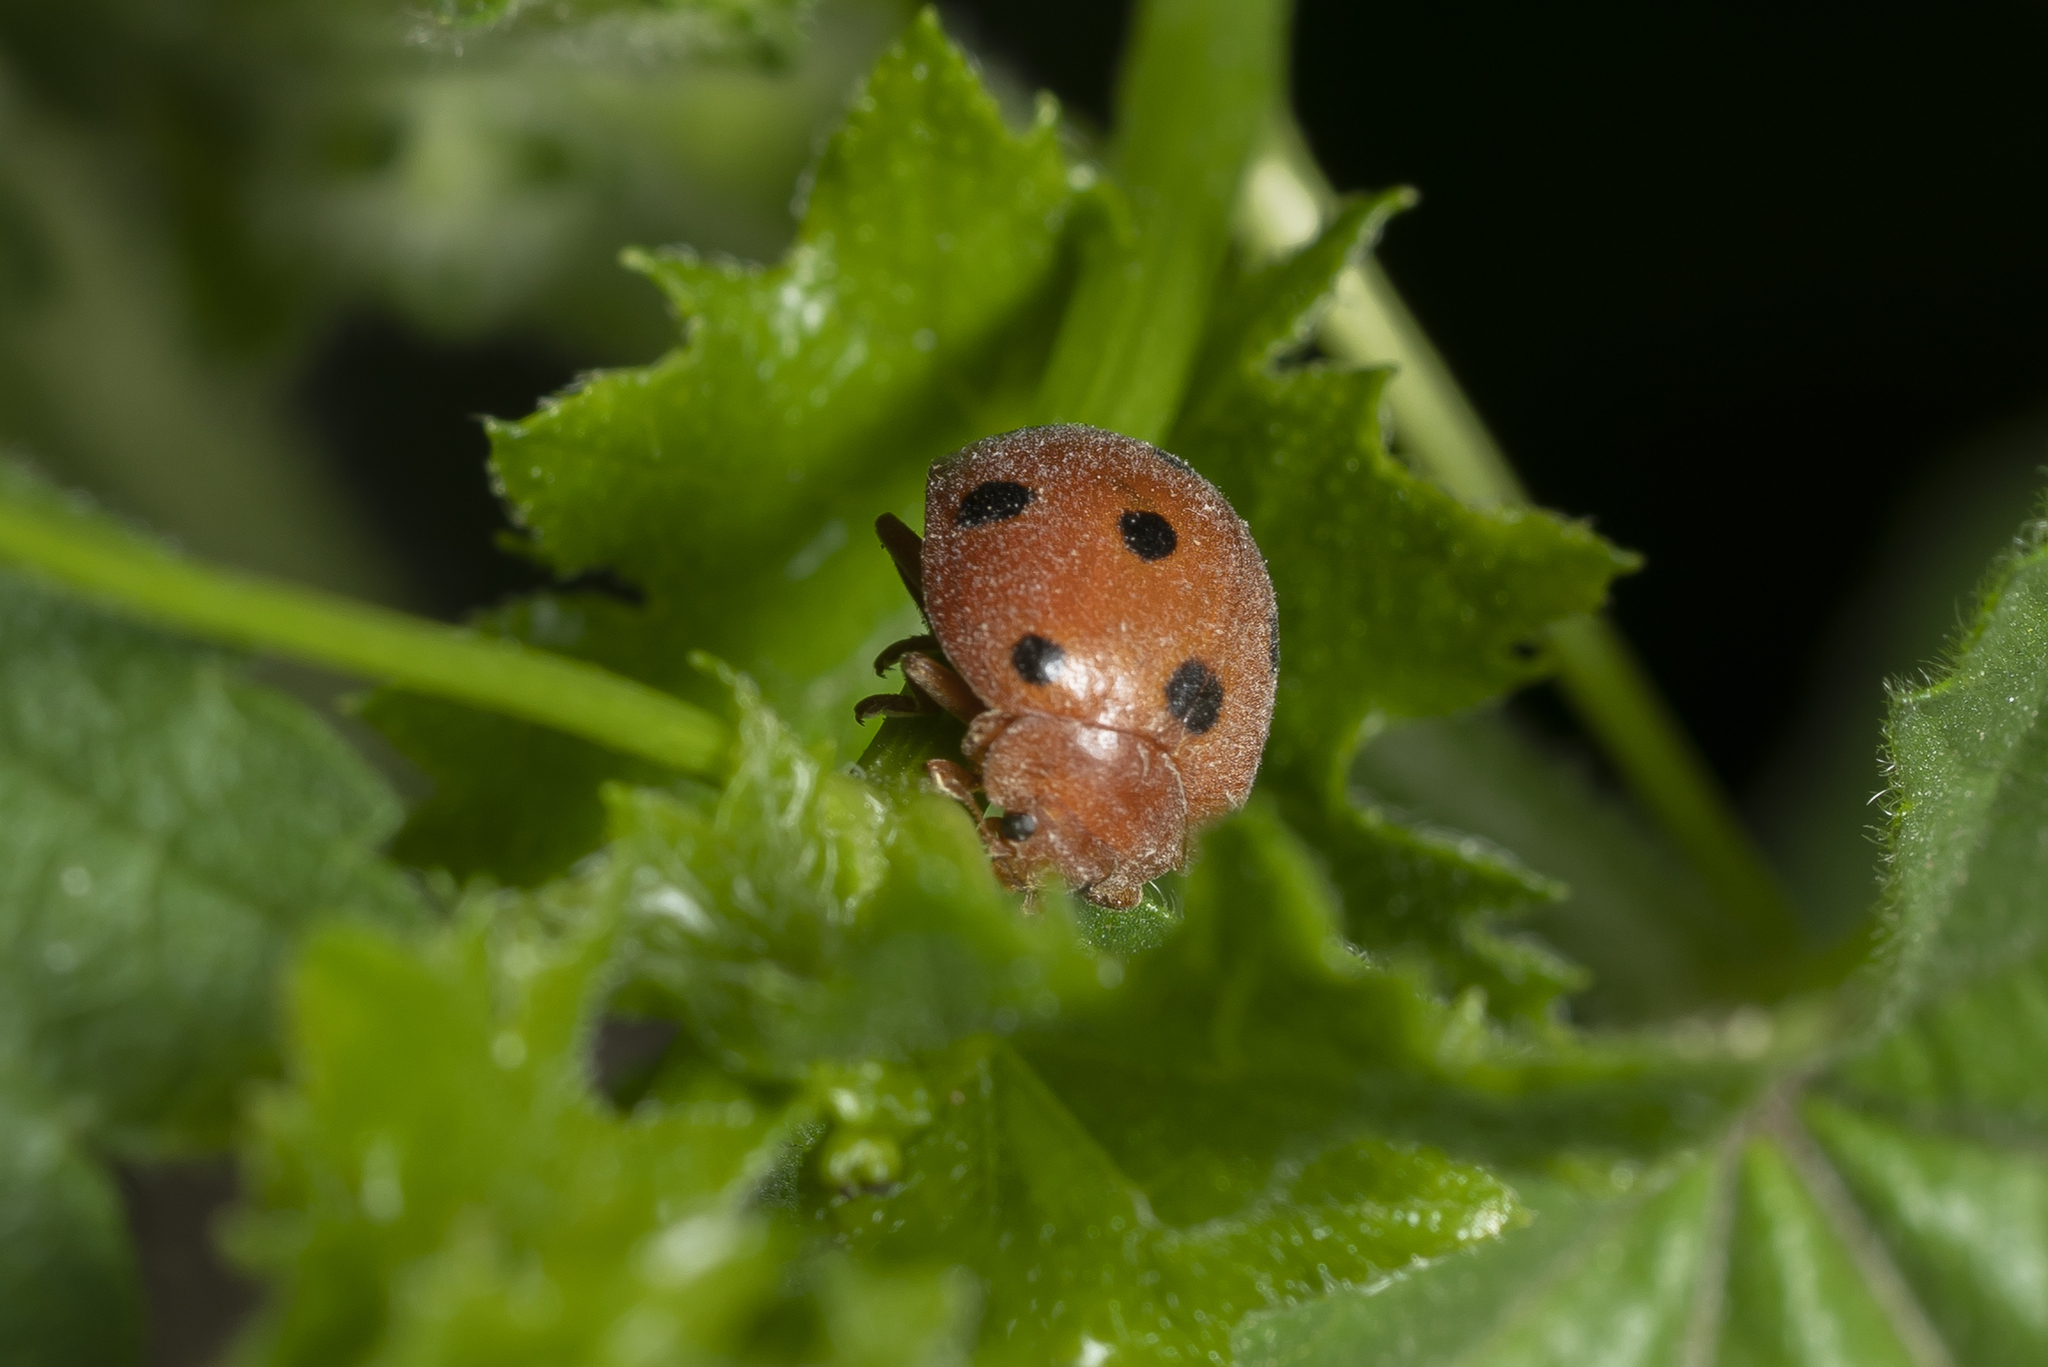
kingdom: Animalia
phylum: Arthropoda
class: Insecta
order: Coleoptera
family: Coccinellidae
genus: Henosepilachna
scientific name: Henosepilachna argus
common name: Bryony ladybird
